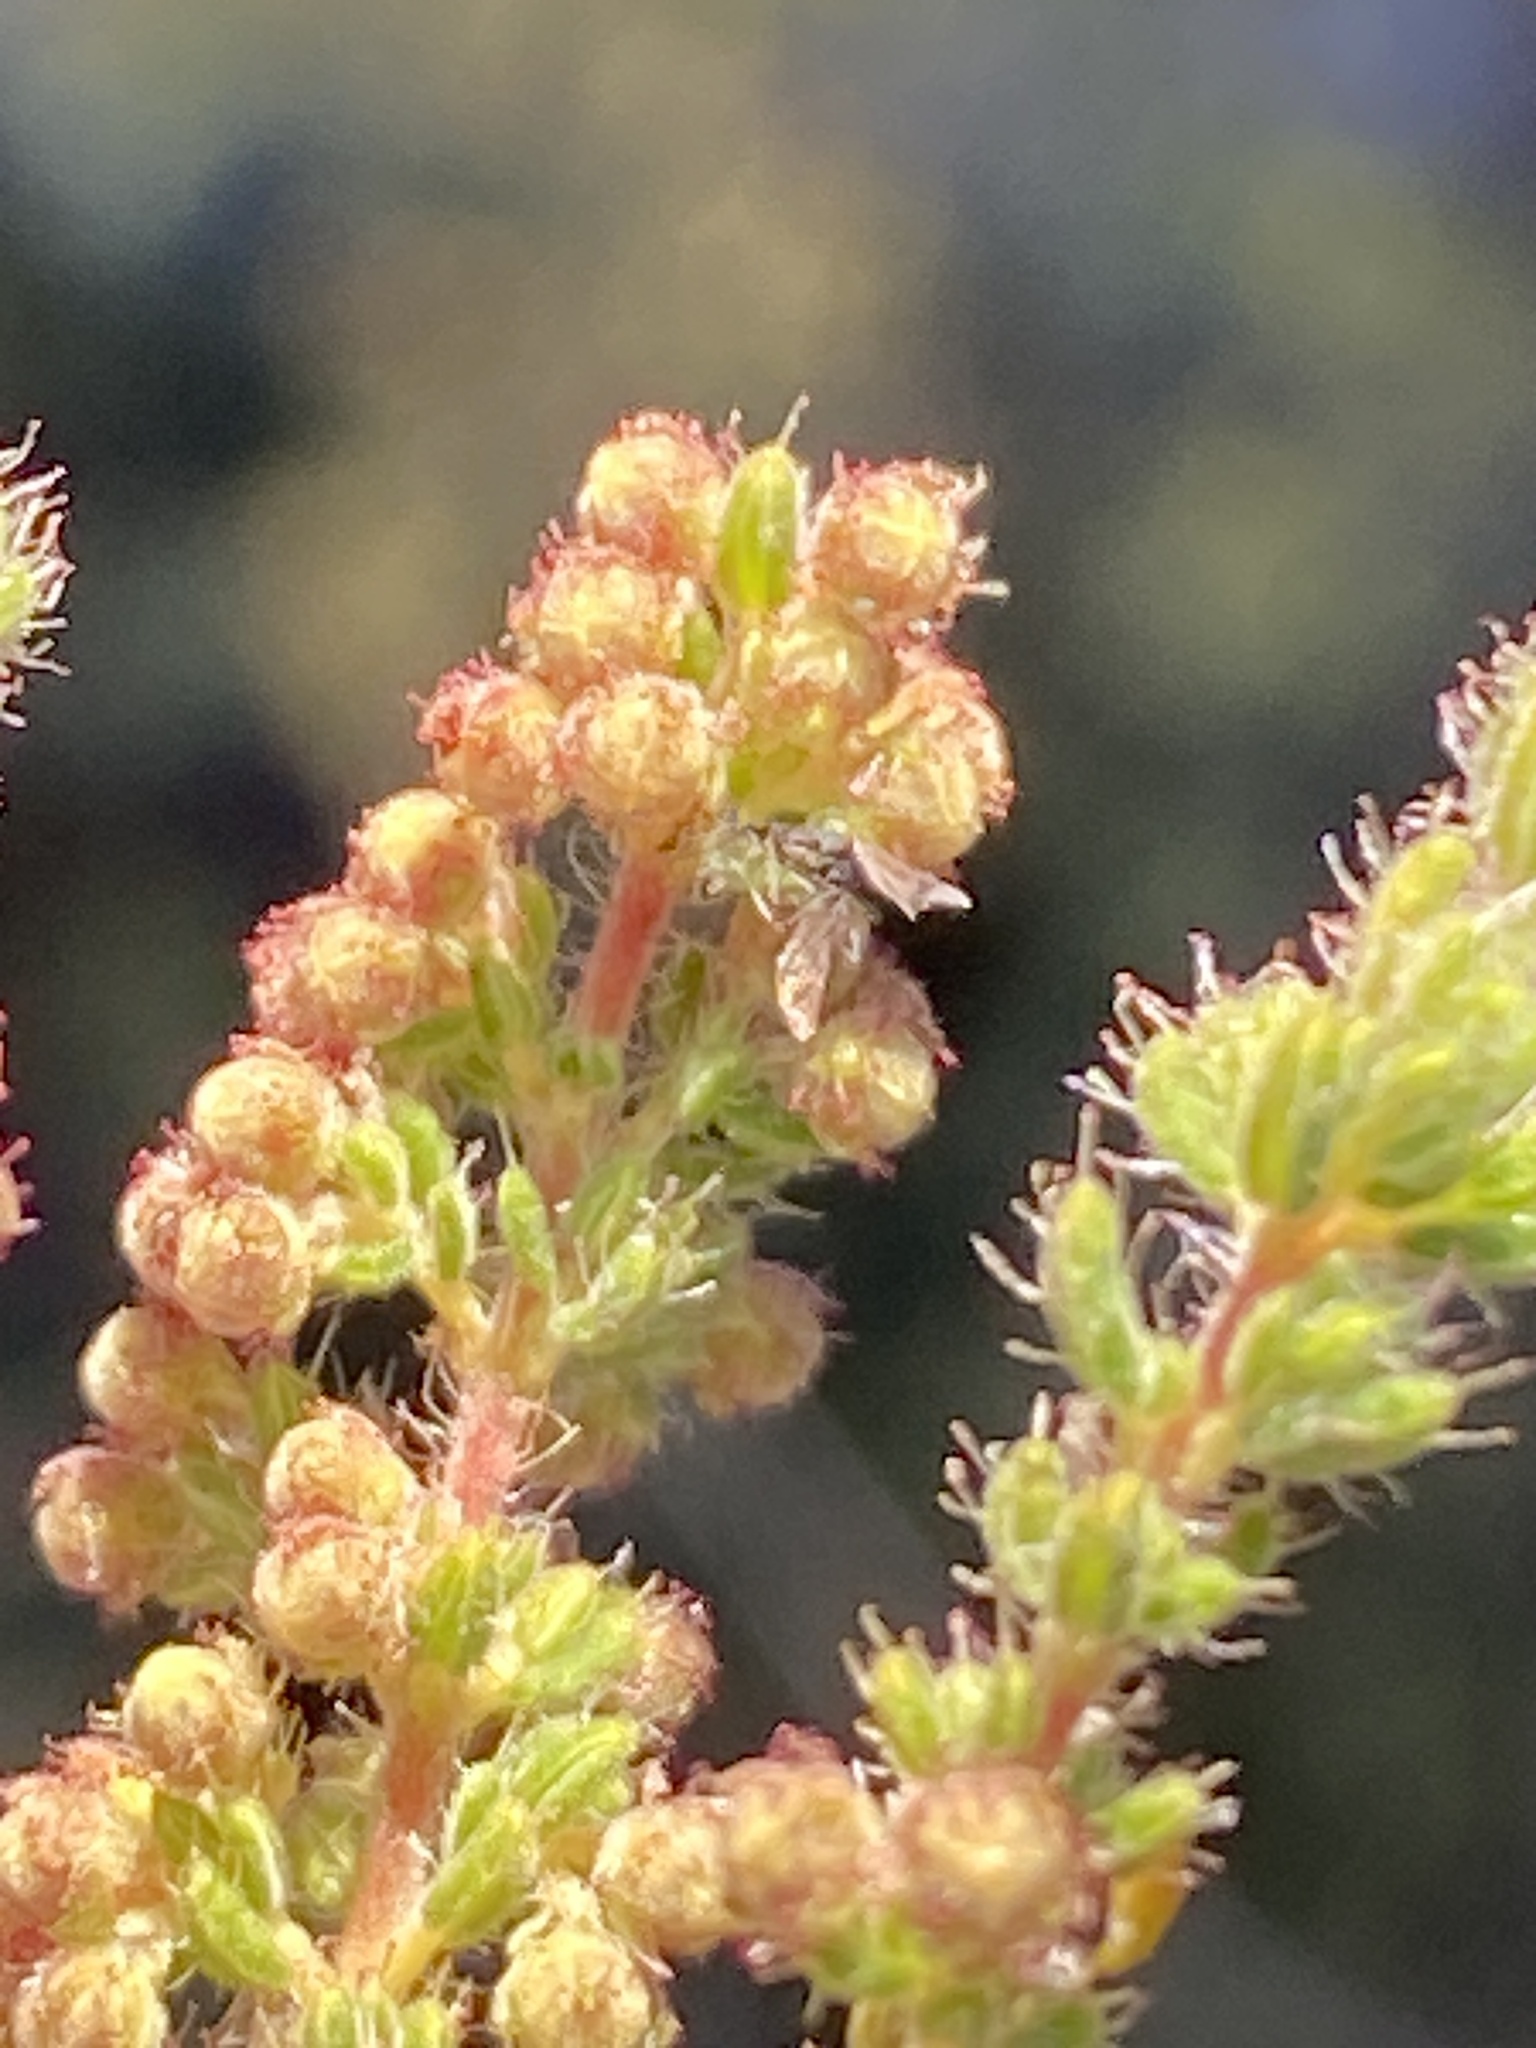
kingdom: Plantae
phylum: Tracheophyta
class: Magnoliopsida
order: Ericales
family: Ericaceae
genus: Erica
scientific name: Erica leucopelta
